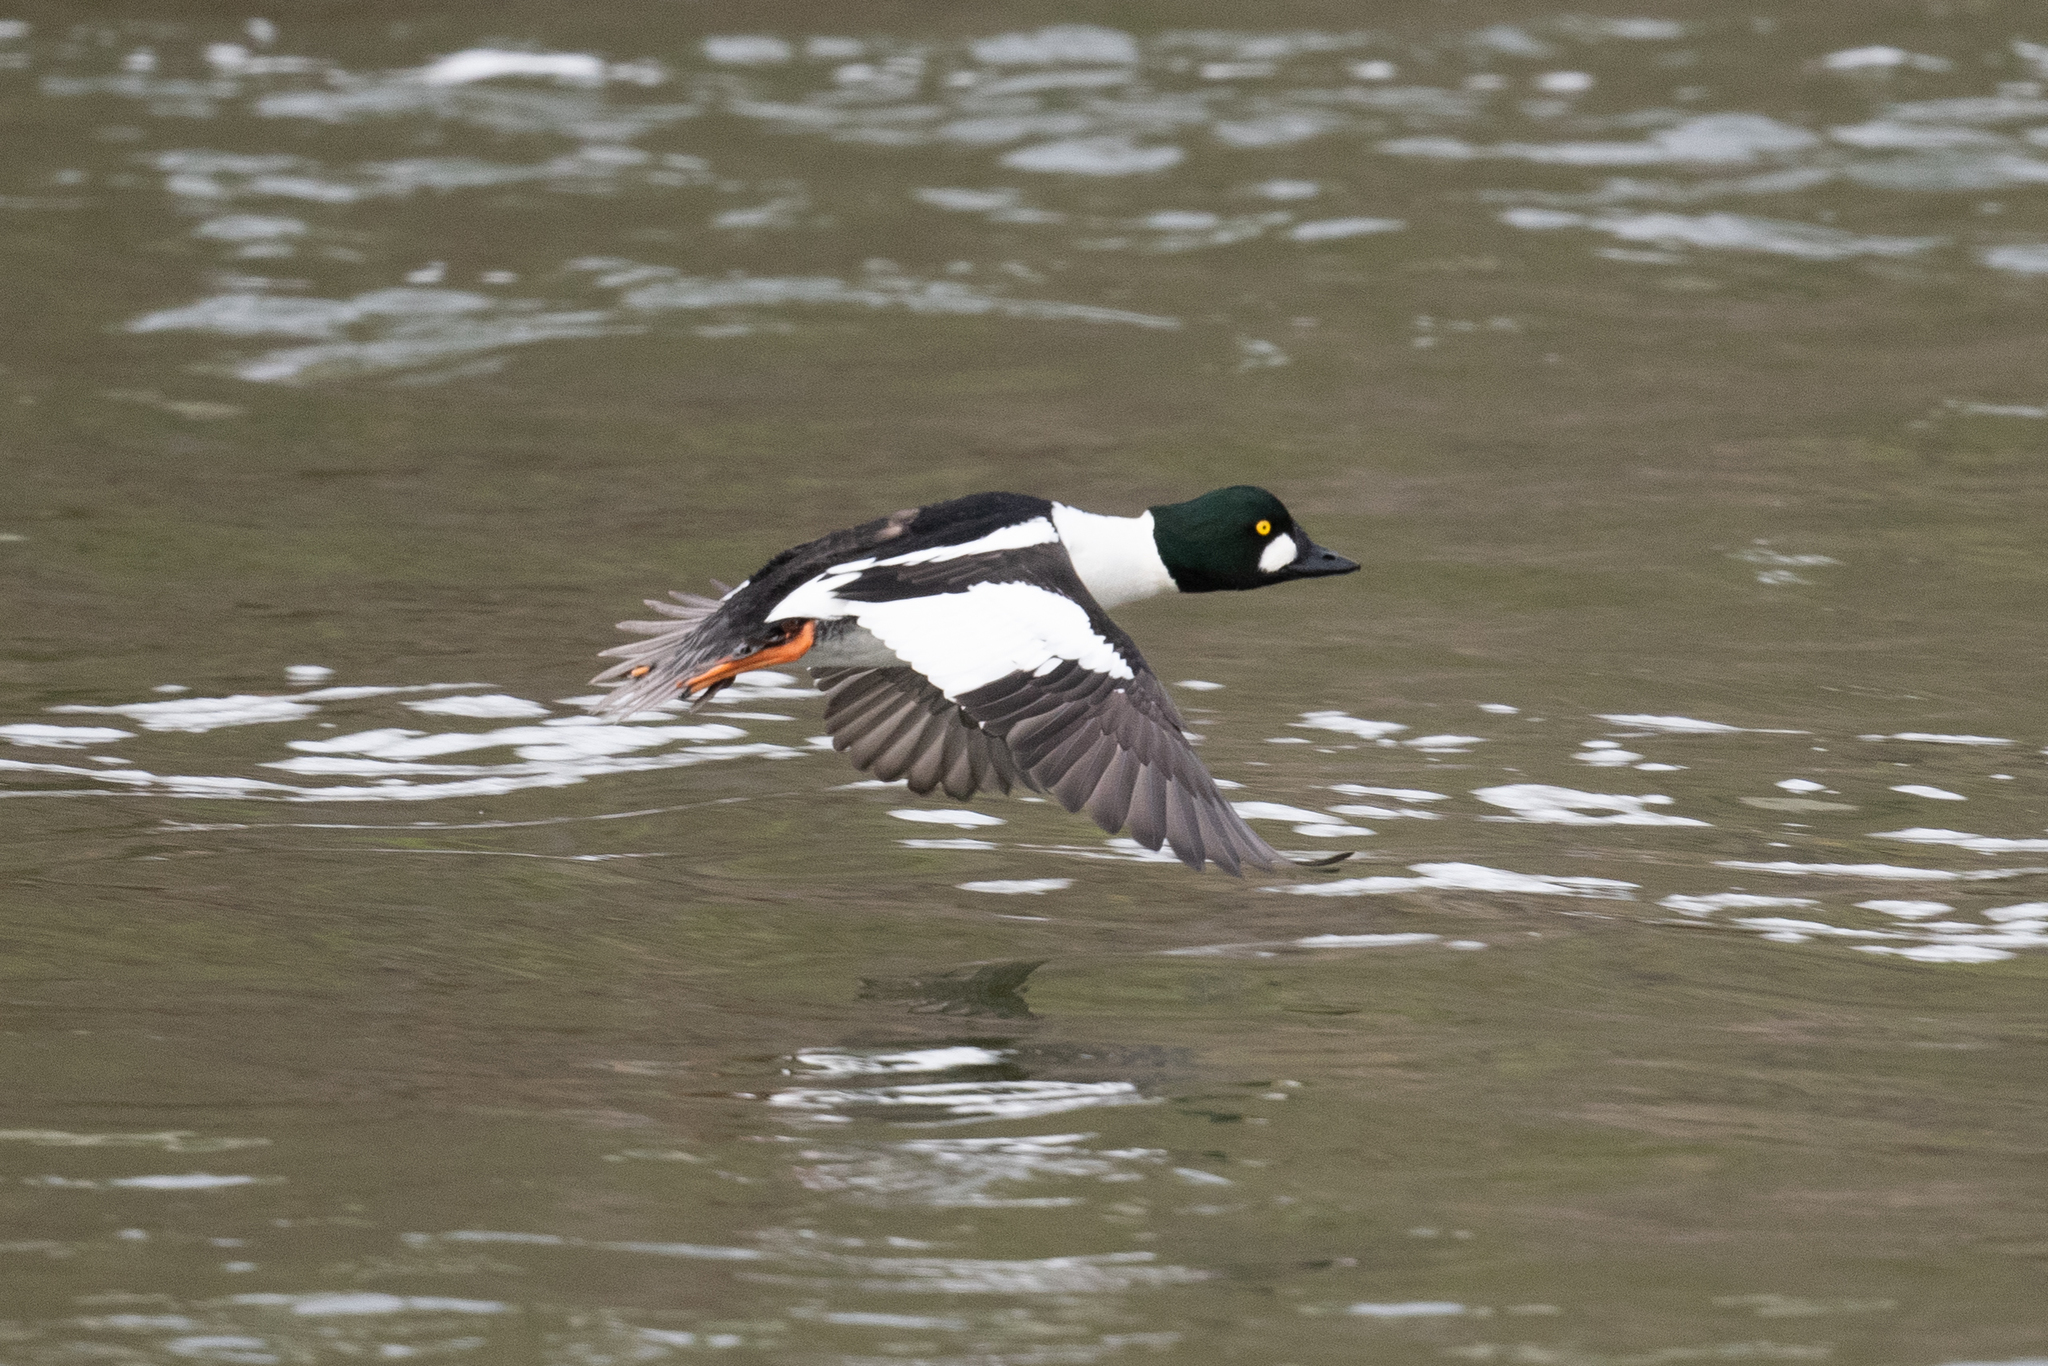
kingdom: Animalia
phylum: Chordata
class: Aves
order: Anseriformes
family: Anatidae
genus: Bucephala
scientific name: Bucephala clangula
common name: Common goldeneye
